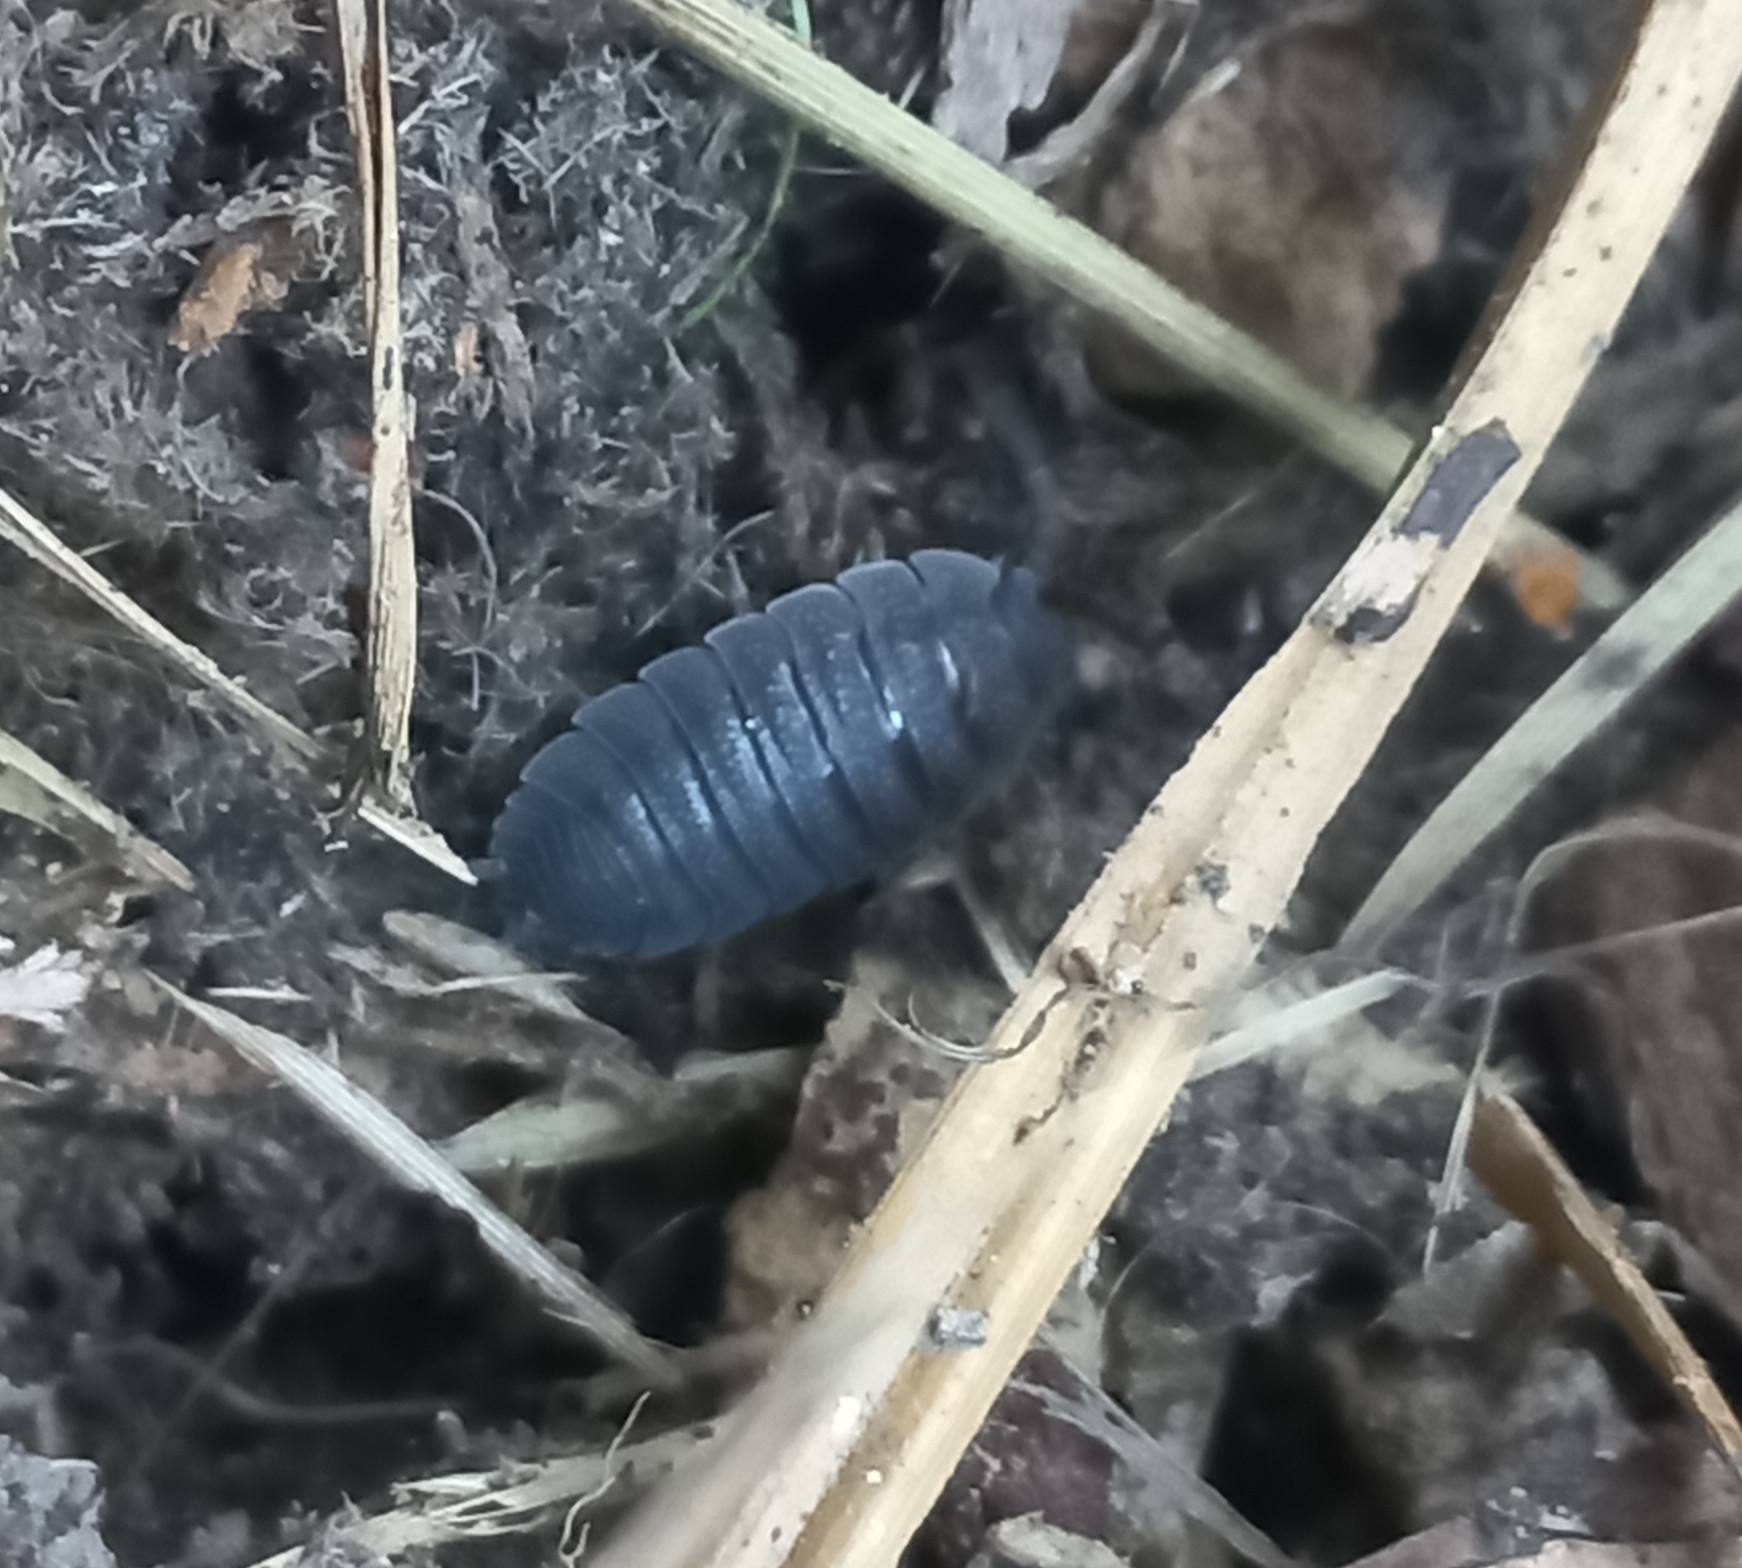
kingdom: Animalia
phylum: Arthropoda
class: Malacostraca
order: Isopoda
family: Porcellionidae
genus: Porcellio
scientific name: Porcellio scaber
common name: Common rough woodlouse
